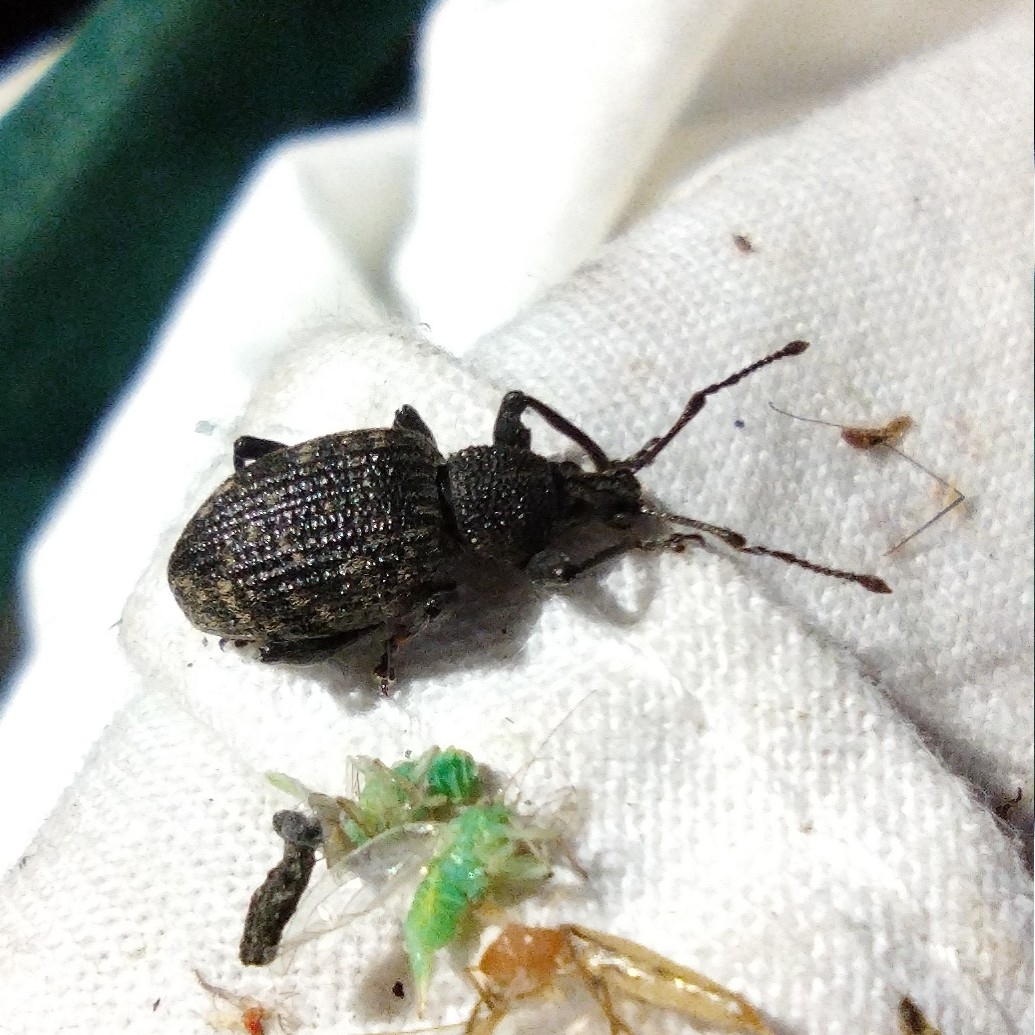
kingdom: Animalia
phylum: Arthropoda
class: Insecta
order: Coleoptera
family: Curculionidae
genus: Otiorhynchus
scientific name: Otiorhynchus sulcatus
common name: Black vine weevil
